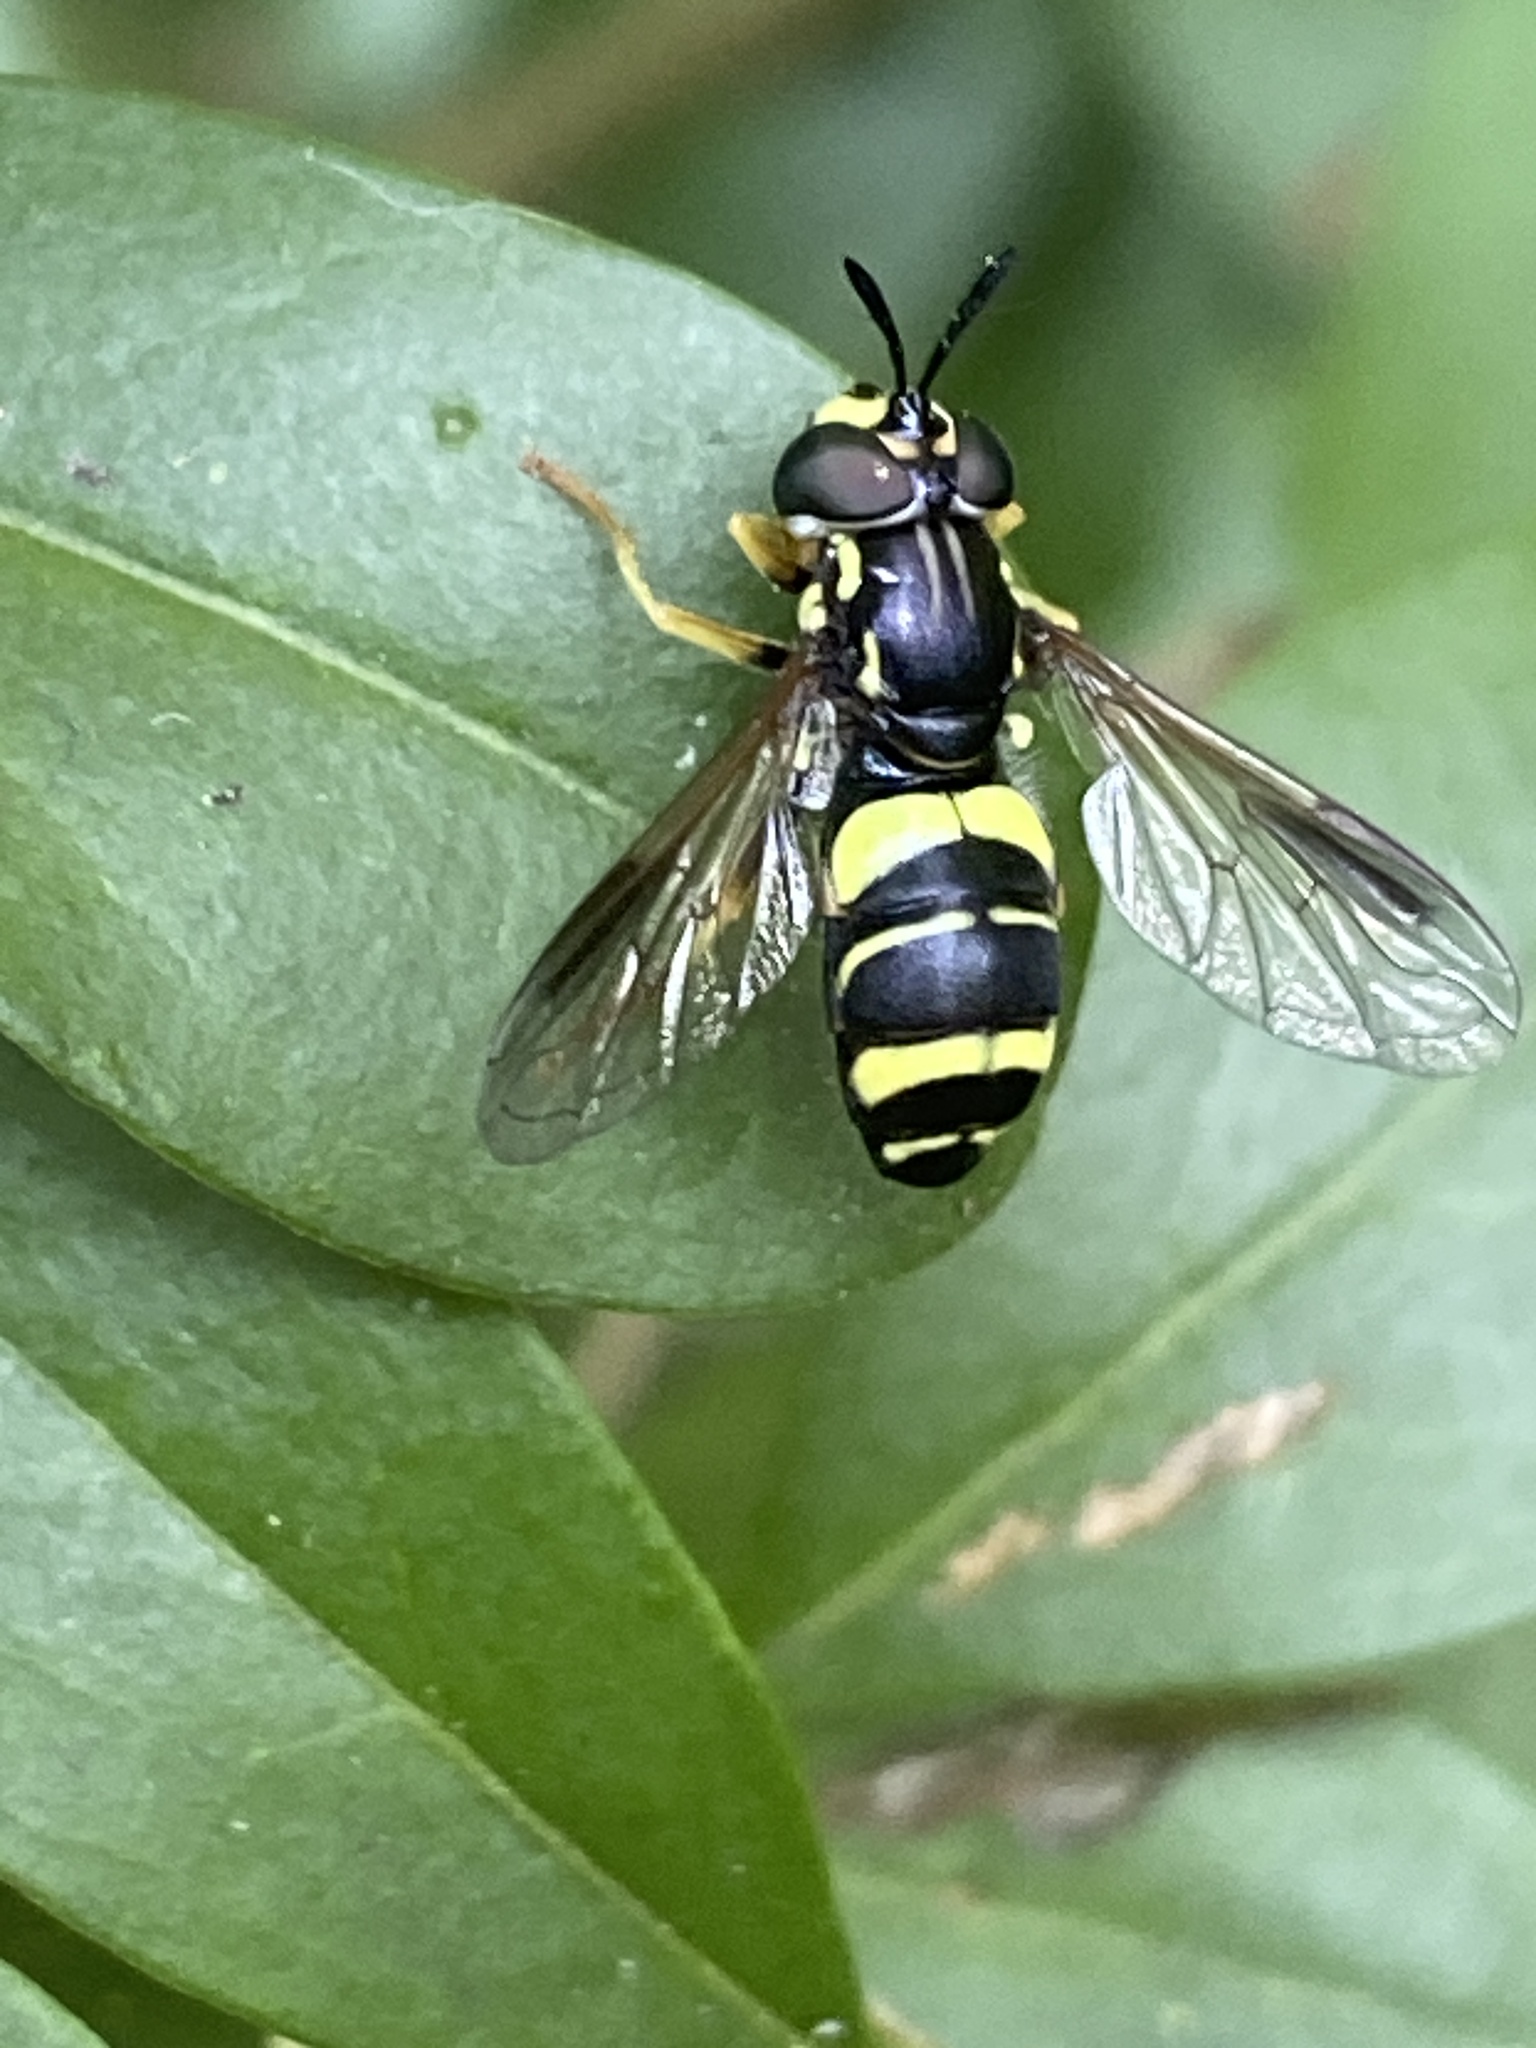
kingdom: Animalia
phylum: Arthropoda
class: Insecta
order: Diptera
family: Syrphidae
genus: Chrysotoxum
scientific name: Chrysotoxum bicincta
